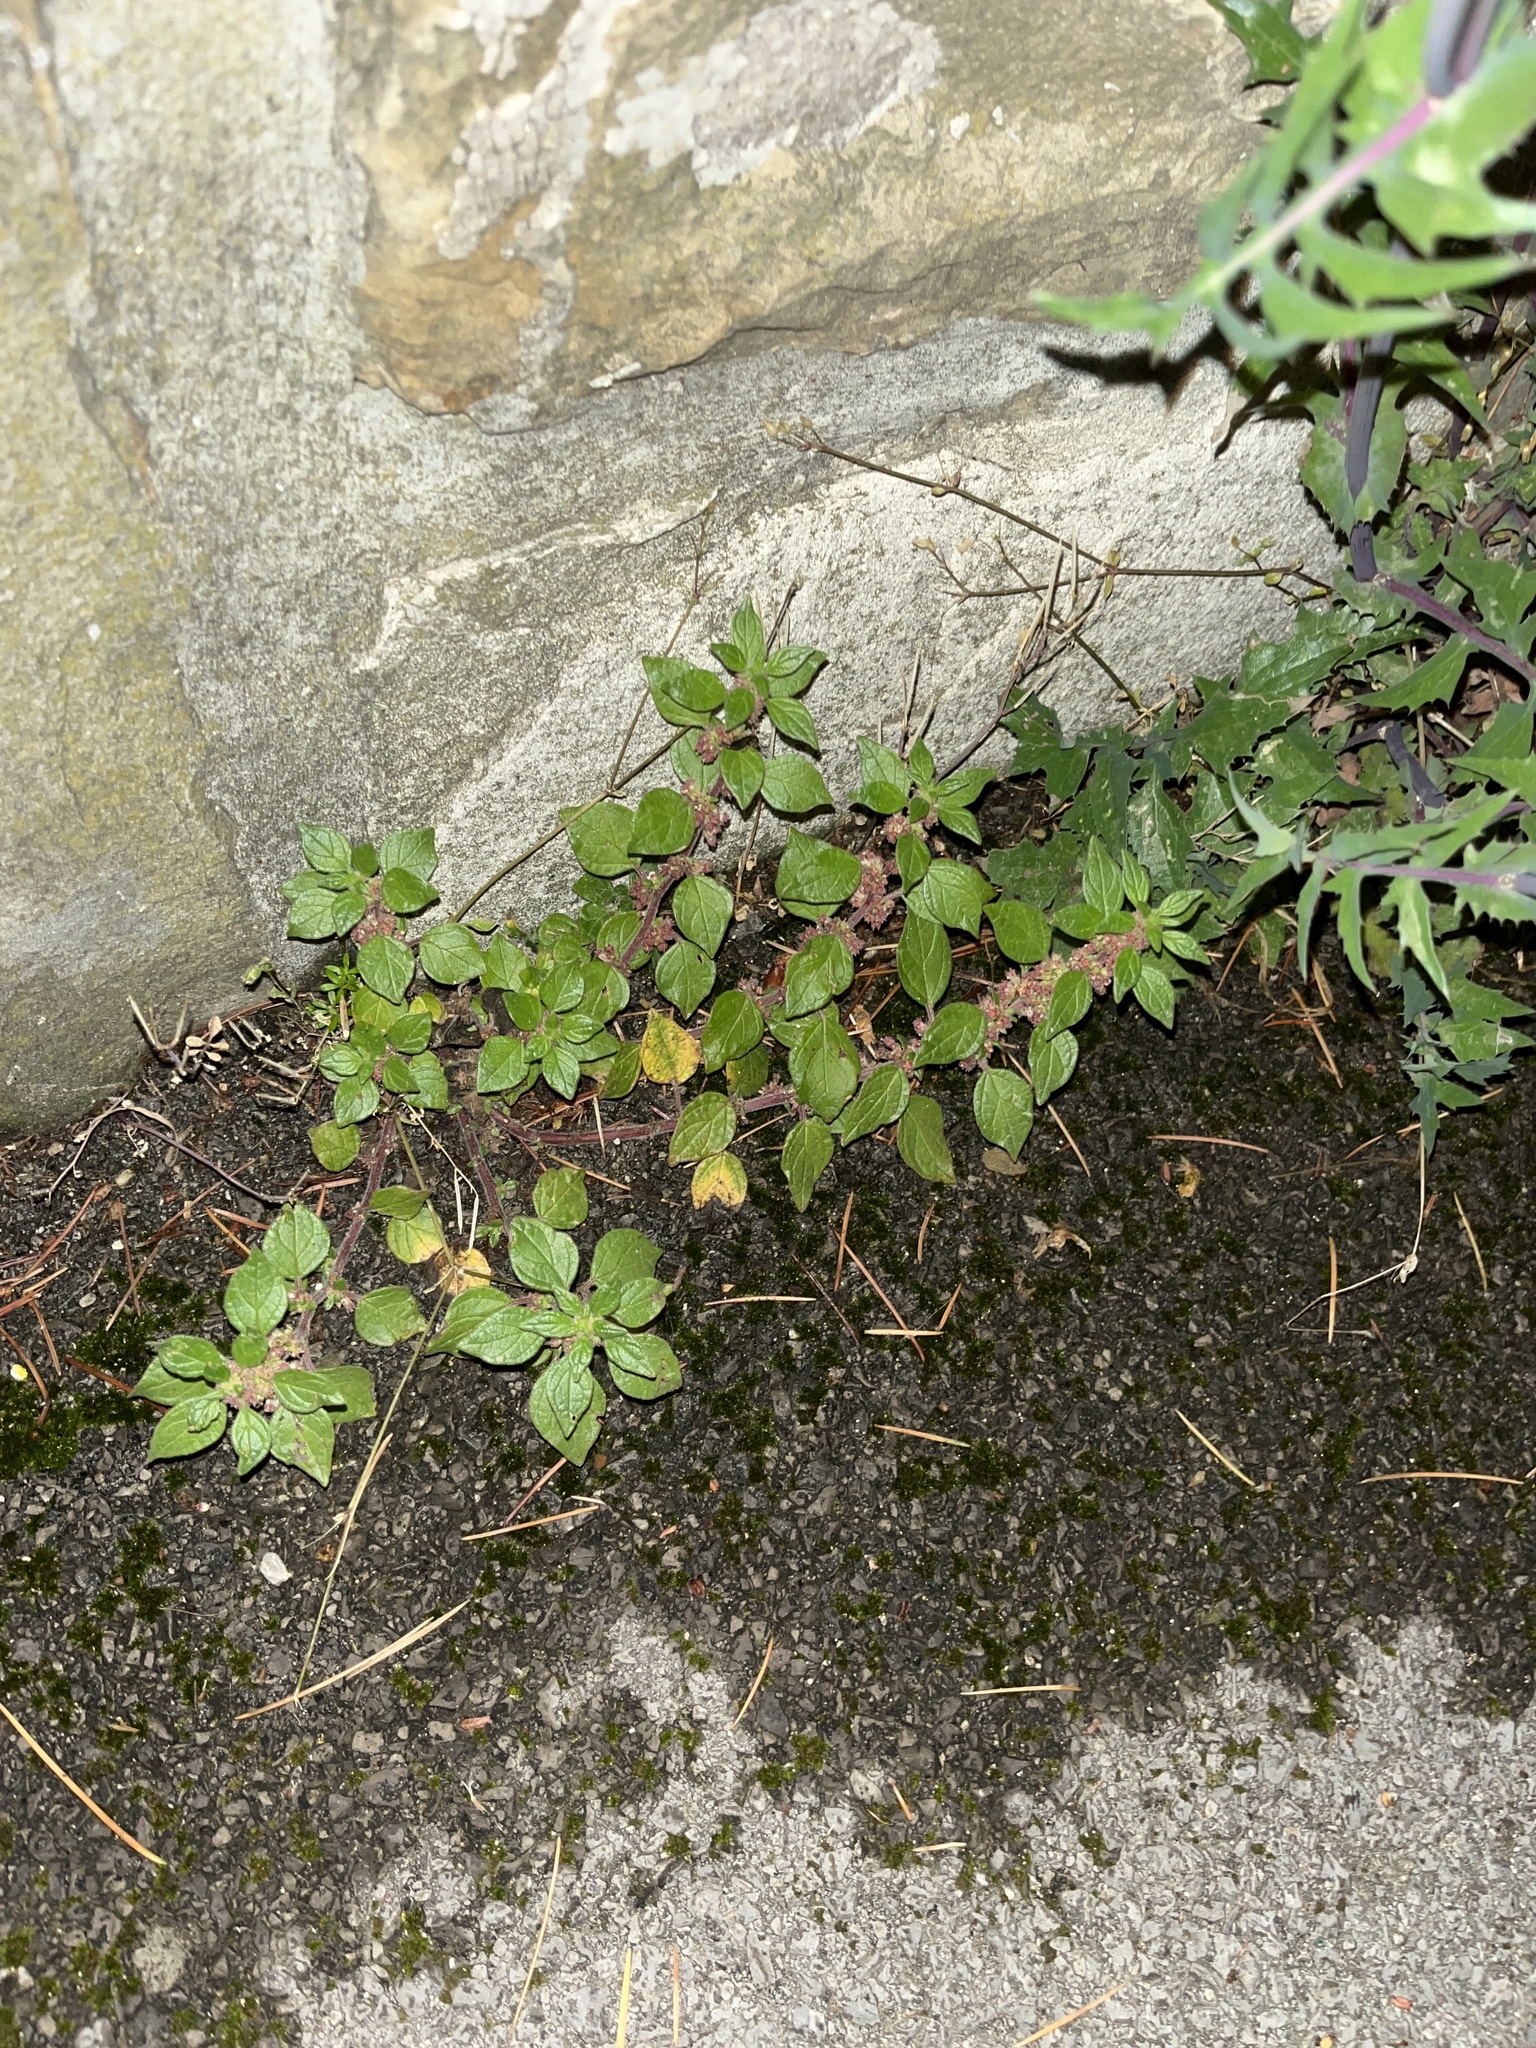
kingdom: Plantae
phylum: Tracheophyta
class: Magnoliopsida
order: Rosales
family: Urticaceae
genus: Parietaria
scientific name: Parietaria judaica
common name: Pellitory-of-the-wall
